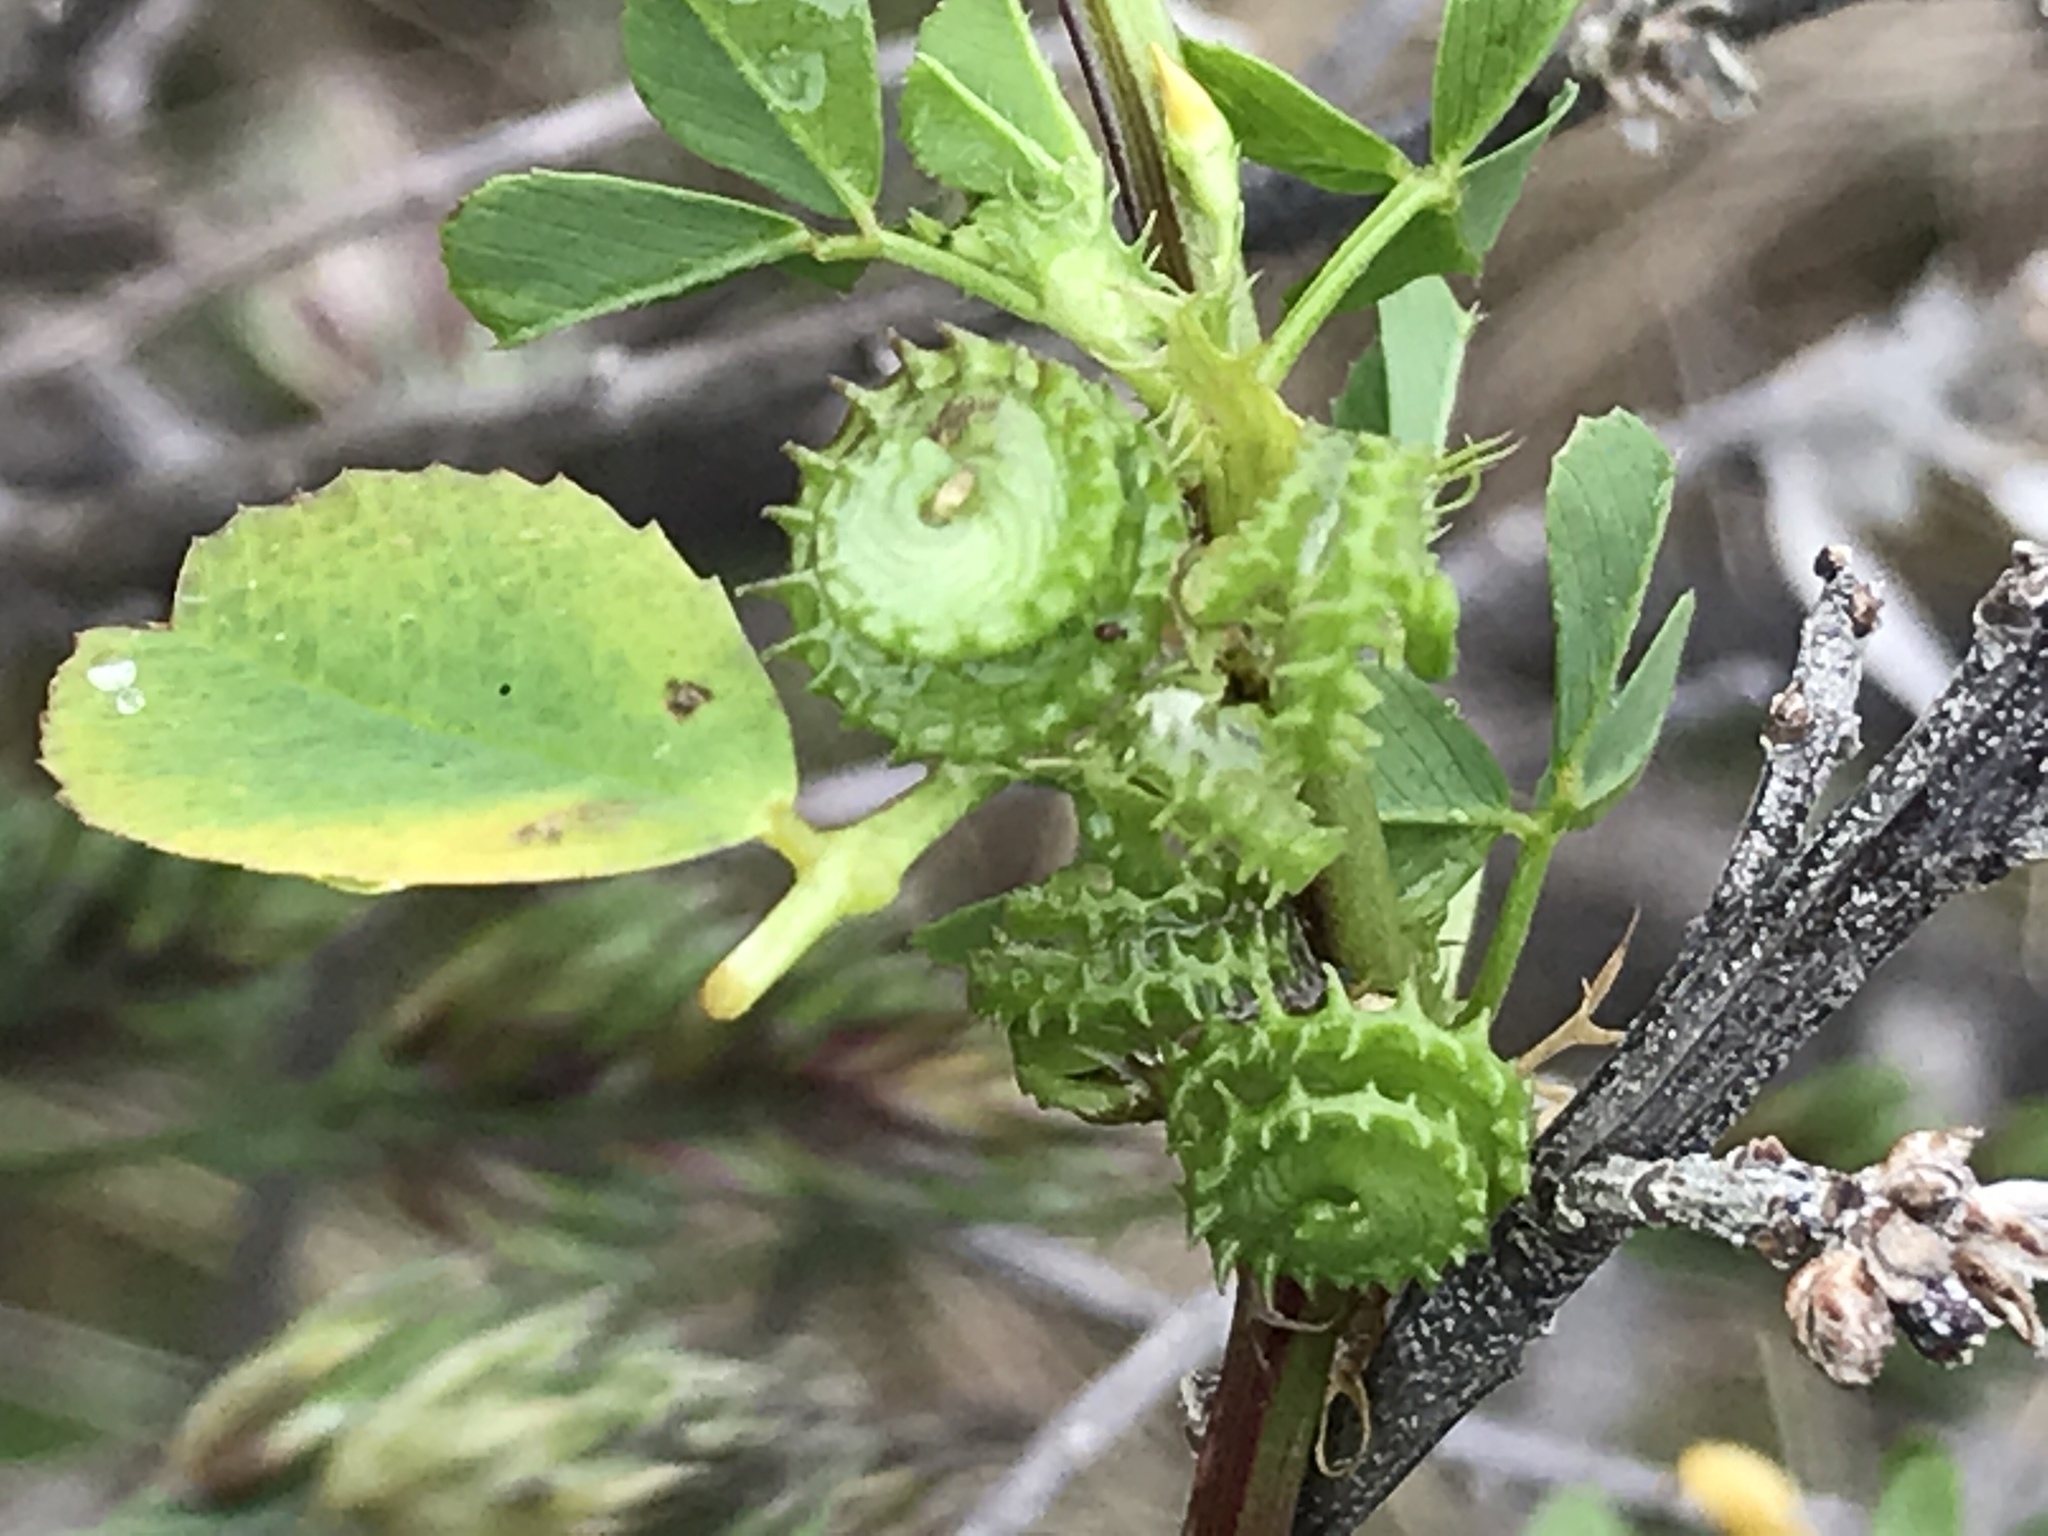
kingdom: Plantae
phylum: Tracheophyta
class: Magnoliopsida
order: Fabales
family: Fabaceae
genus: Medicago
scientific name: Medicago polymorpha
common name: Burclover
